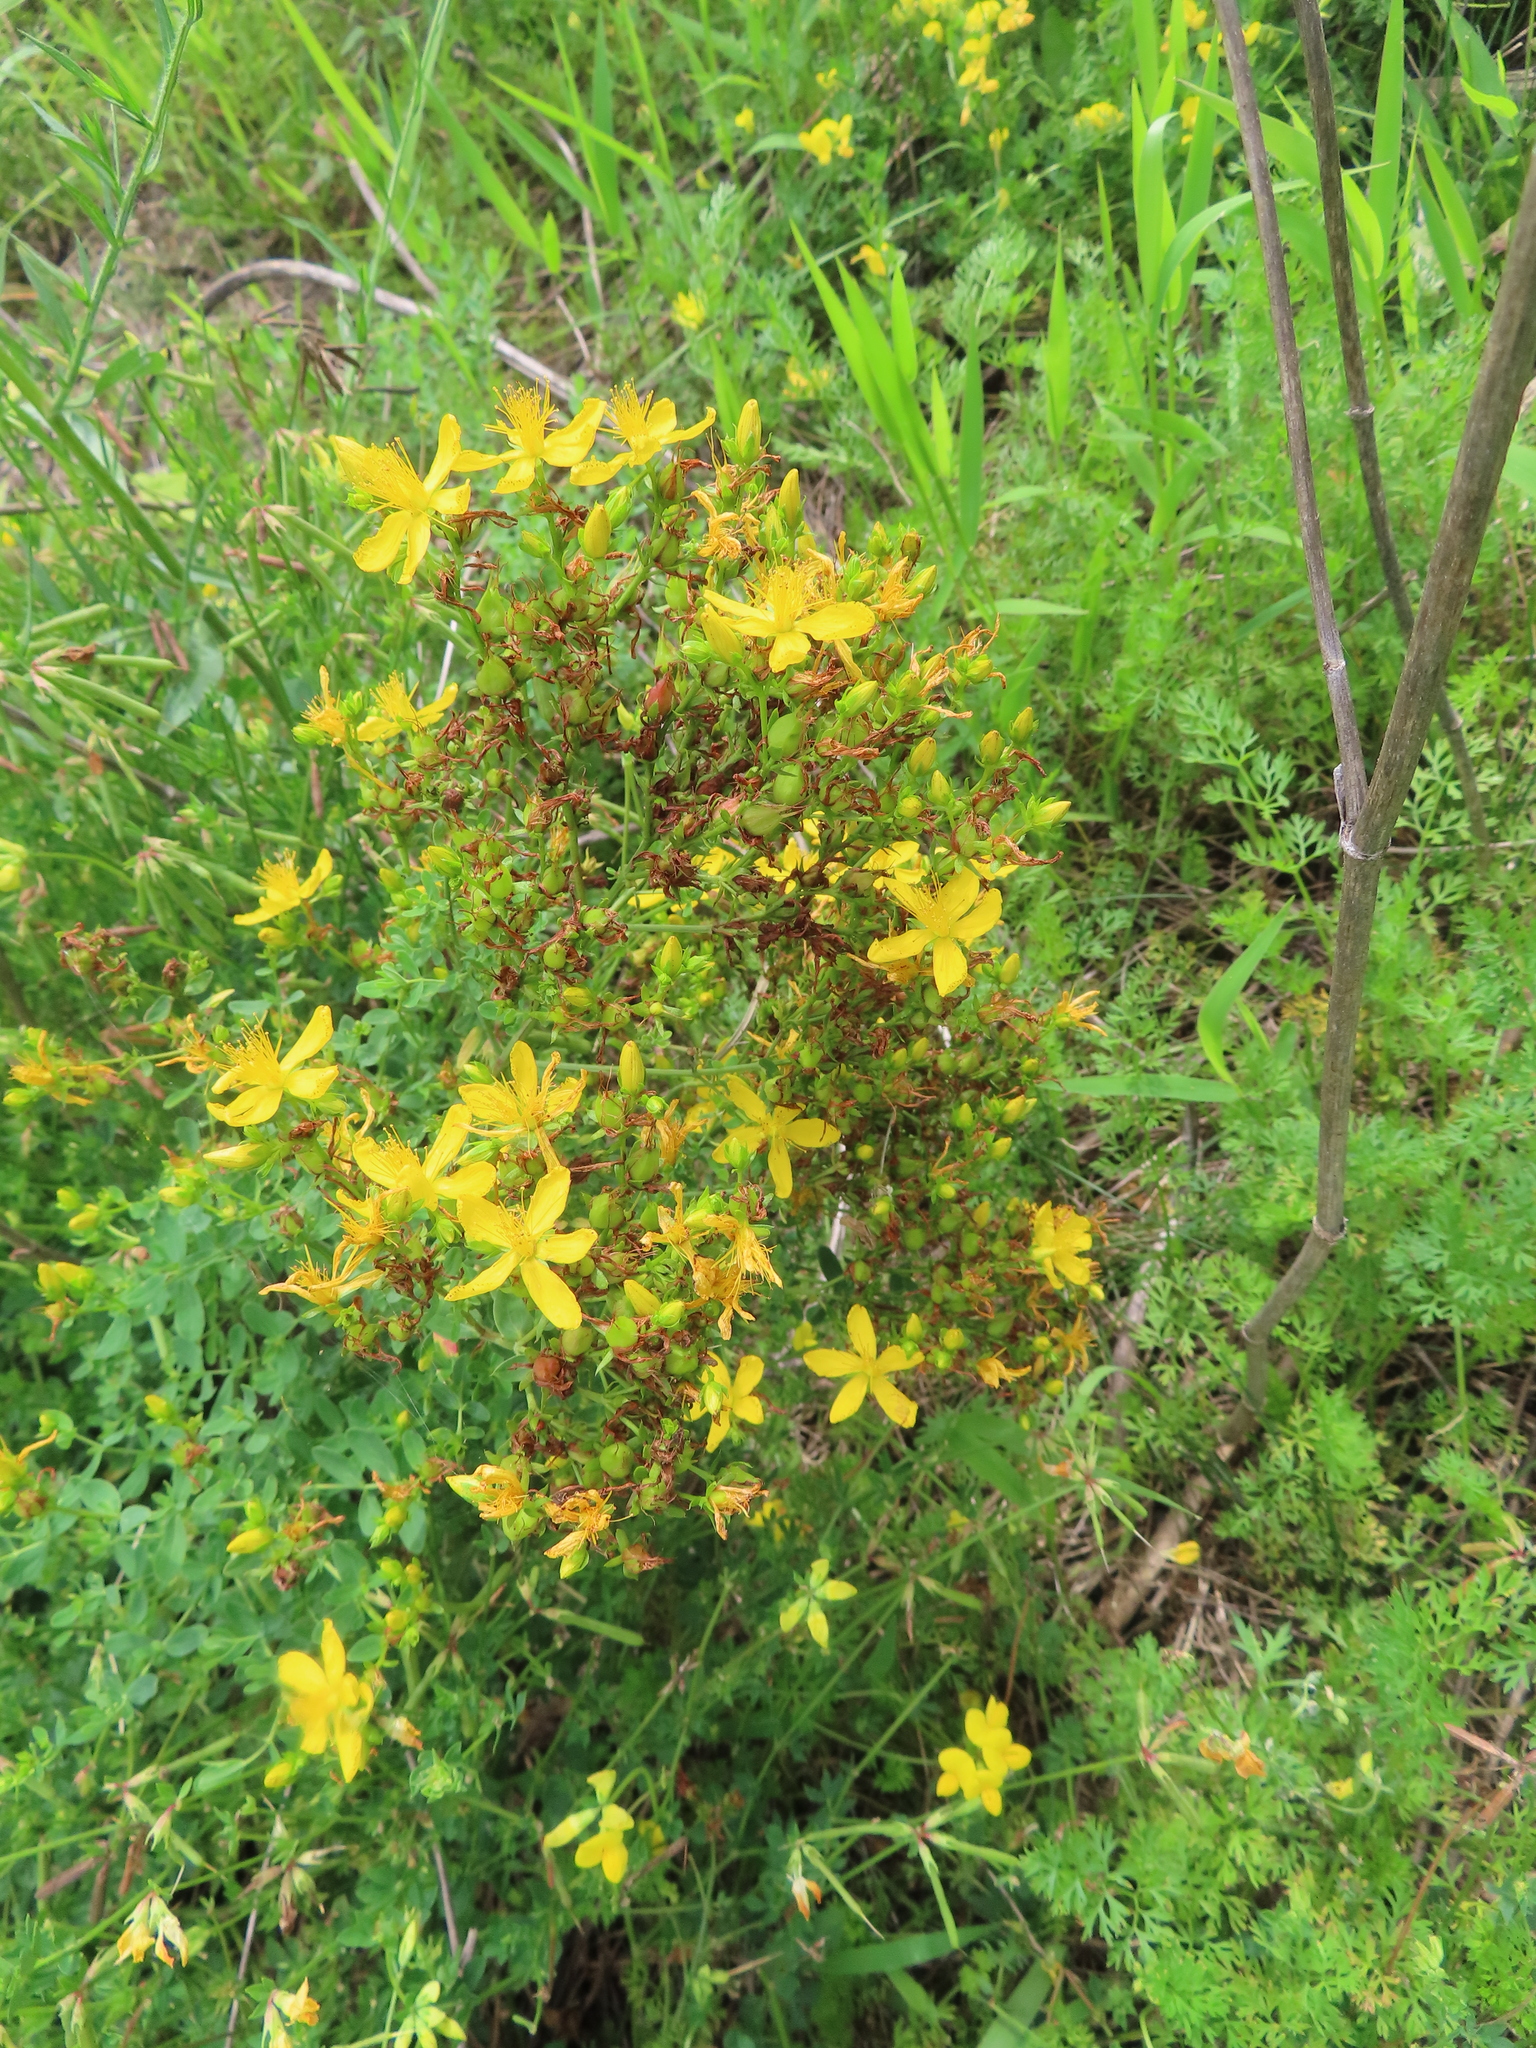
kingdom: Plantae
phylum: Tracheophyta
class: Magnoliopsida
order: Malpighiales
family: Hypericaceae
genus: Hypericum
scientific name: Hypericum perforatum
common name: Common st. johnswort
